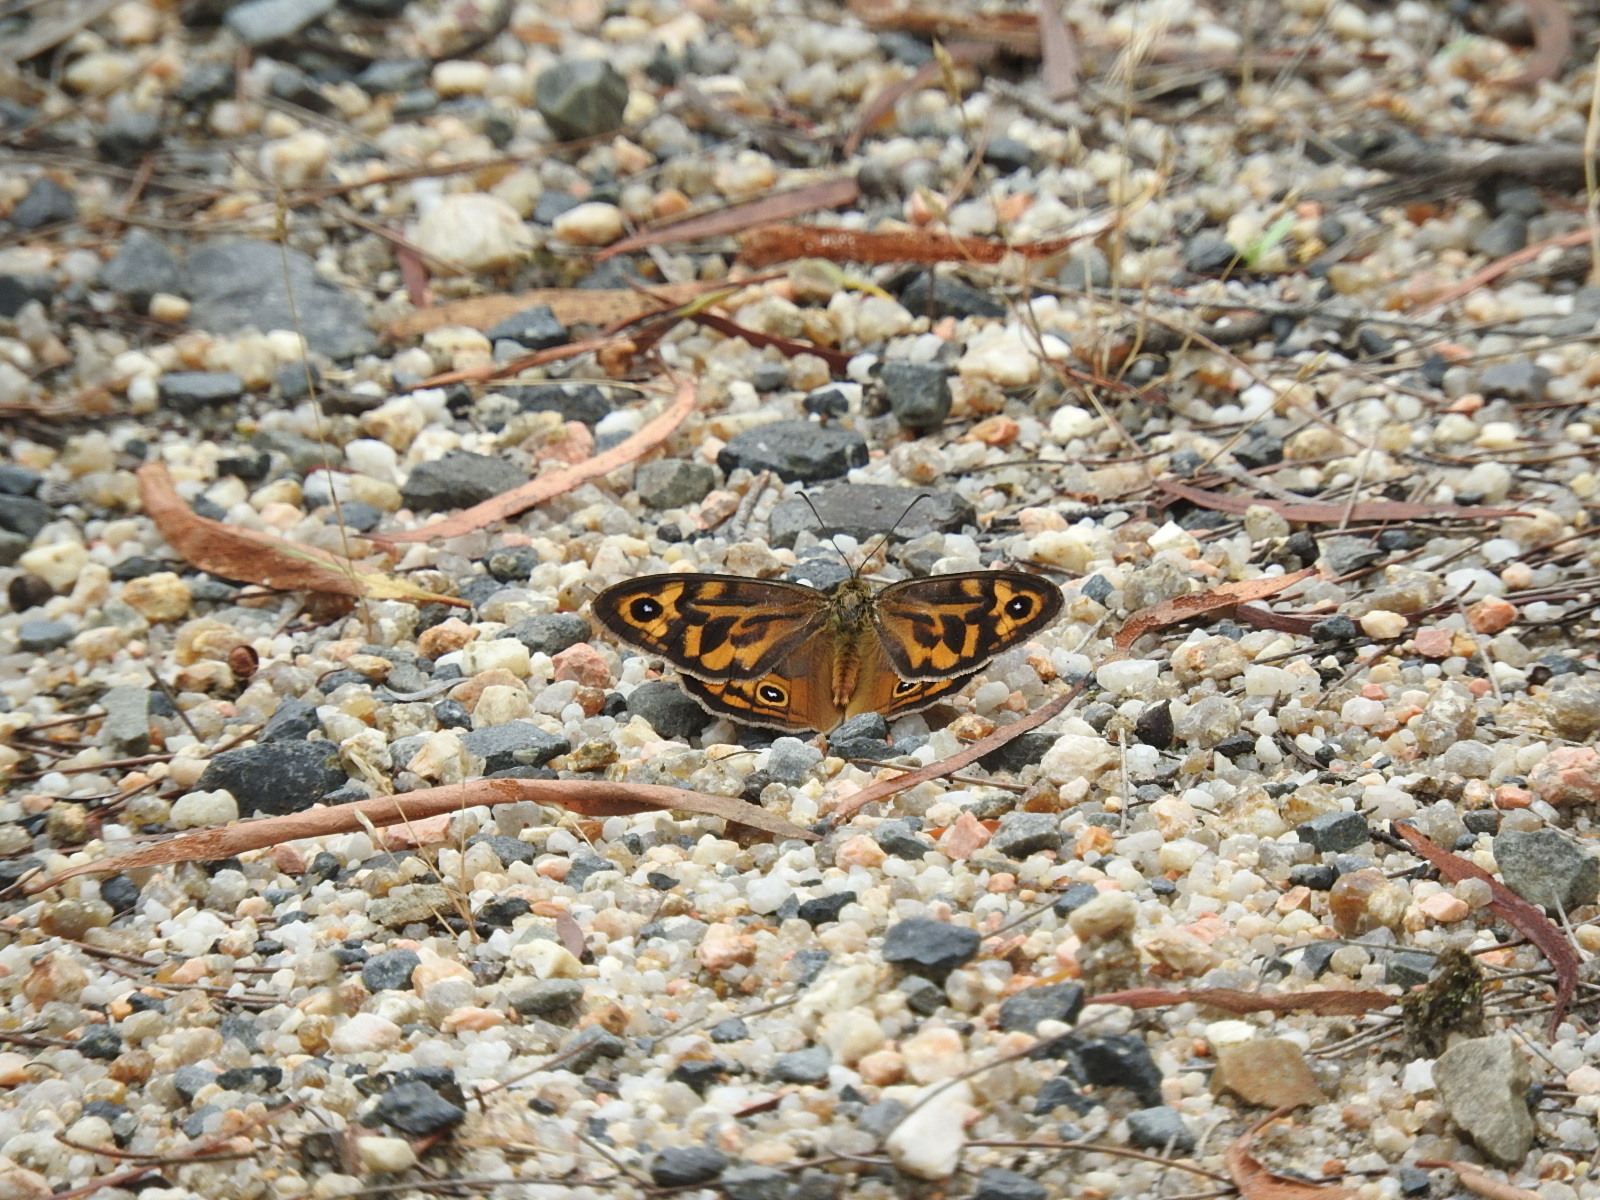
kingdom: Animalia
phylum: Arthropoda
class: Insecta
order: Lepidoptera
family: Nymphalidae
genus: Heteronympha
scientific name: Heteronympha merope
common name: Common brown
